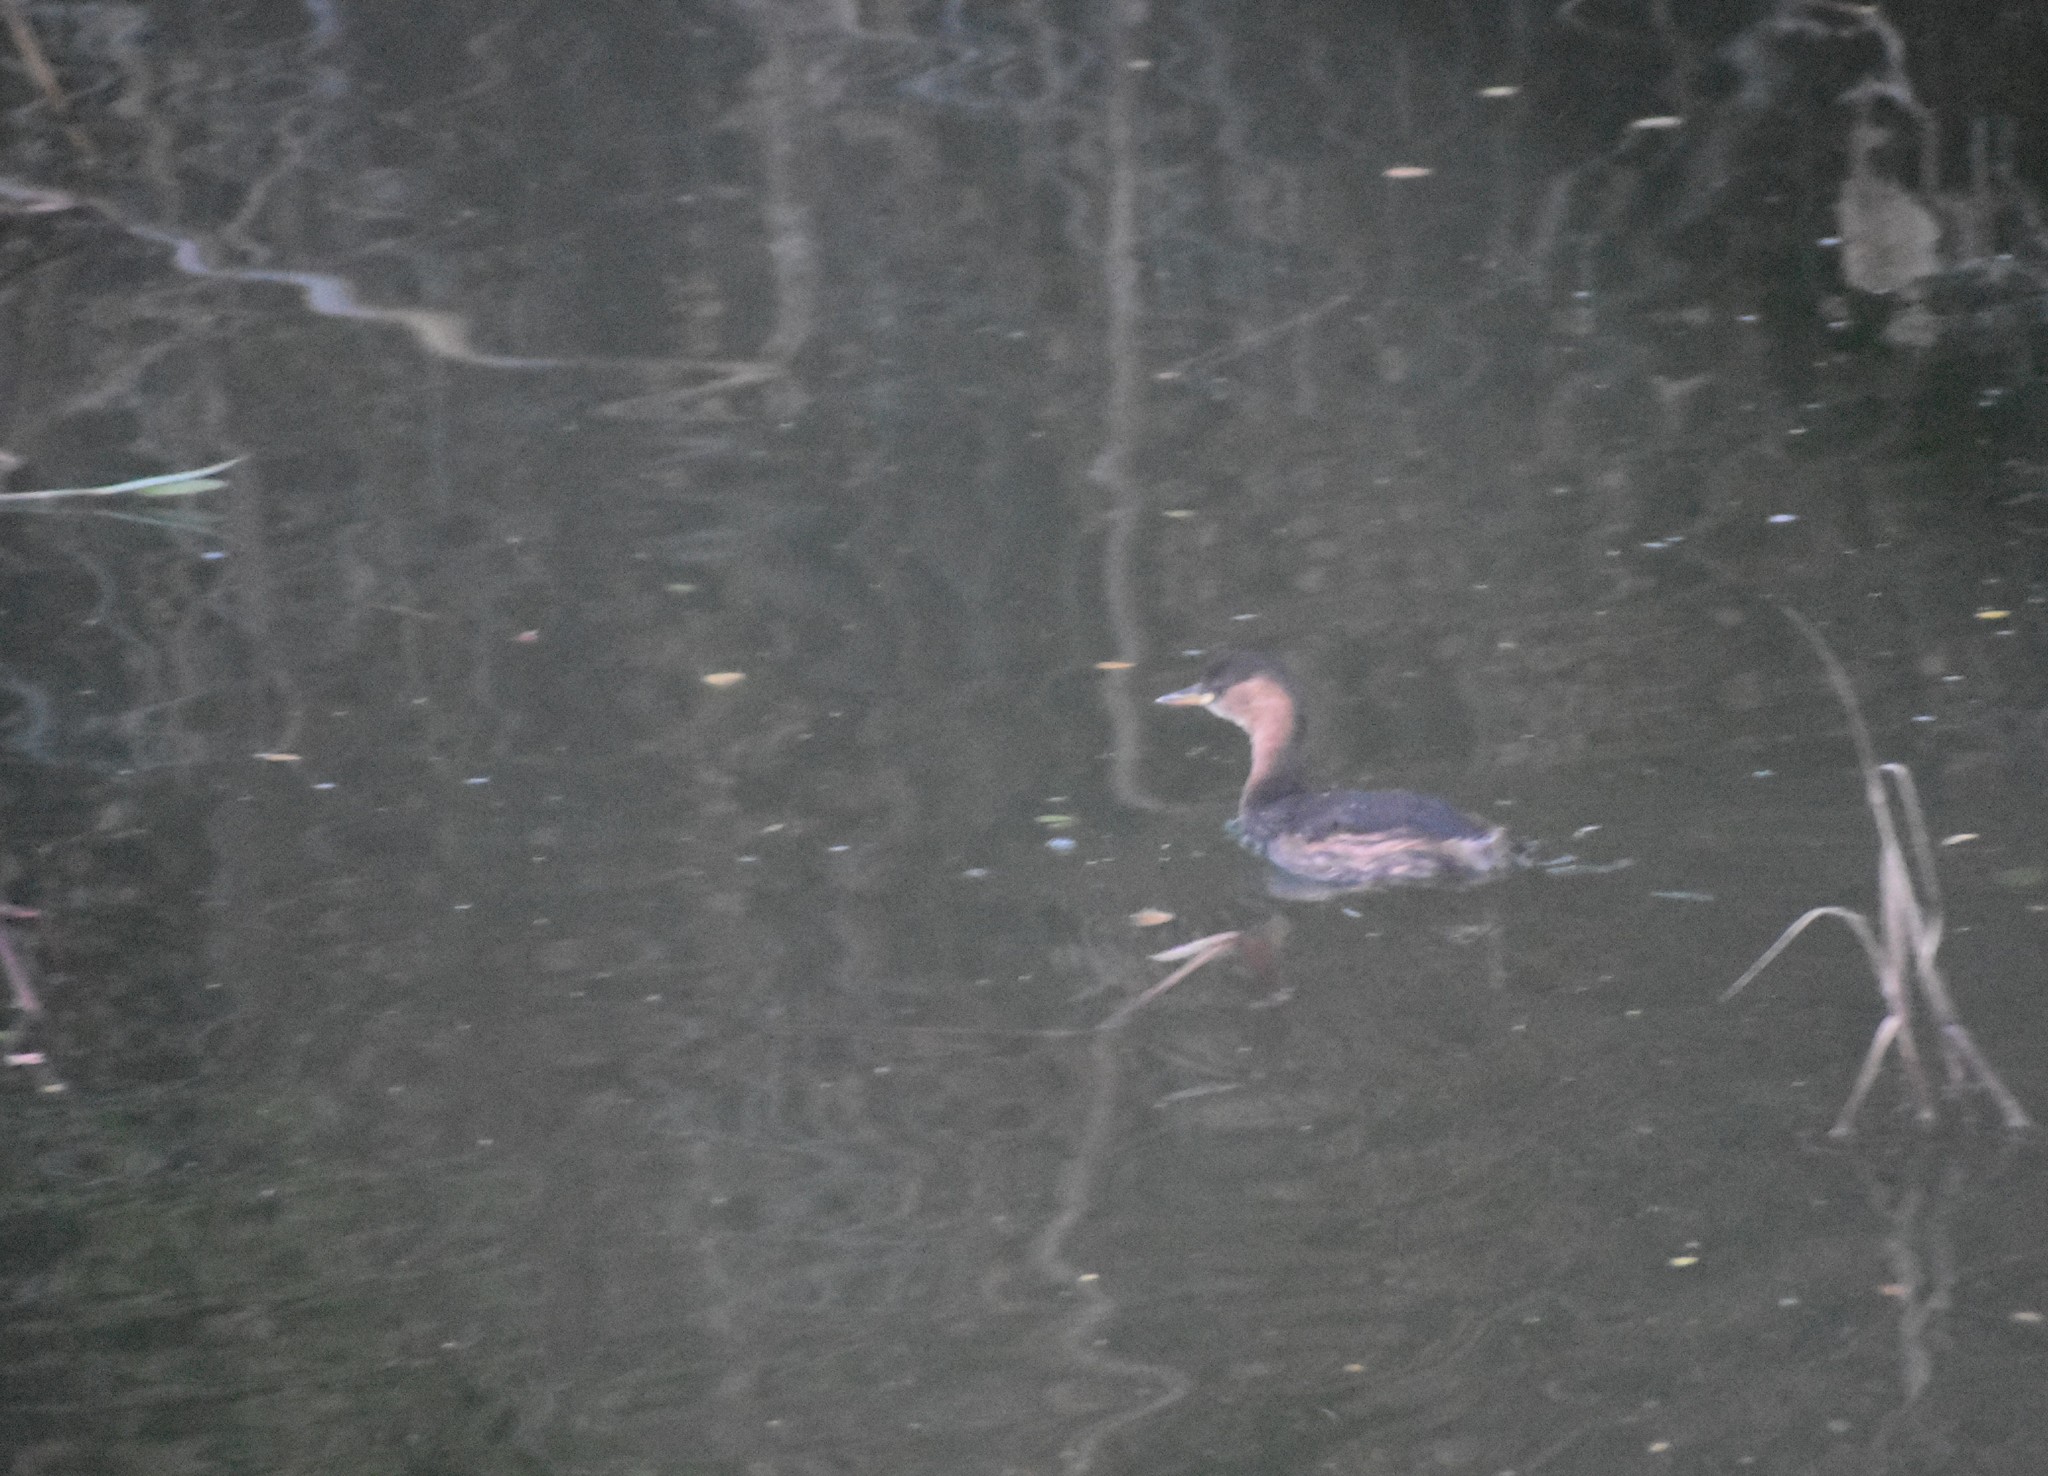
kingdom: Animalia
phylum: Chordata
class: Aves
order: Podicipediformes
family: Podicipedidae
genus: Tachybaptus
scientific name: Tachybaptus ruficollis
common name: Little grebe
